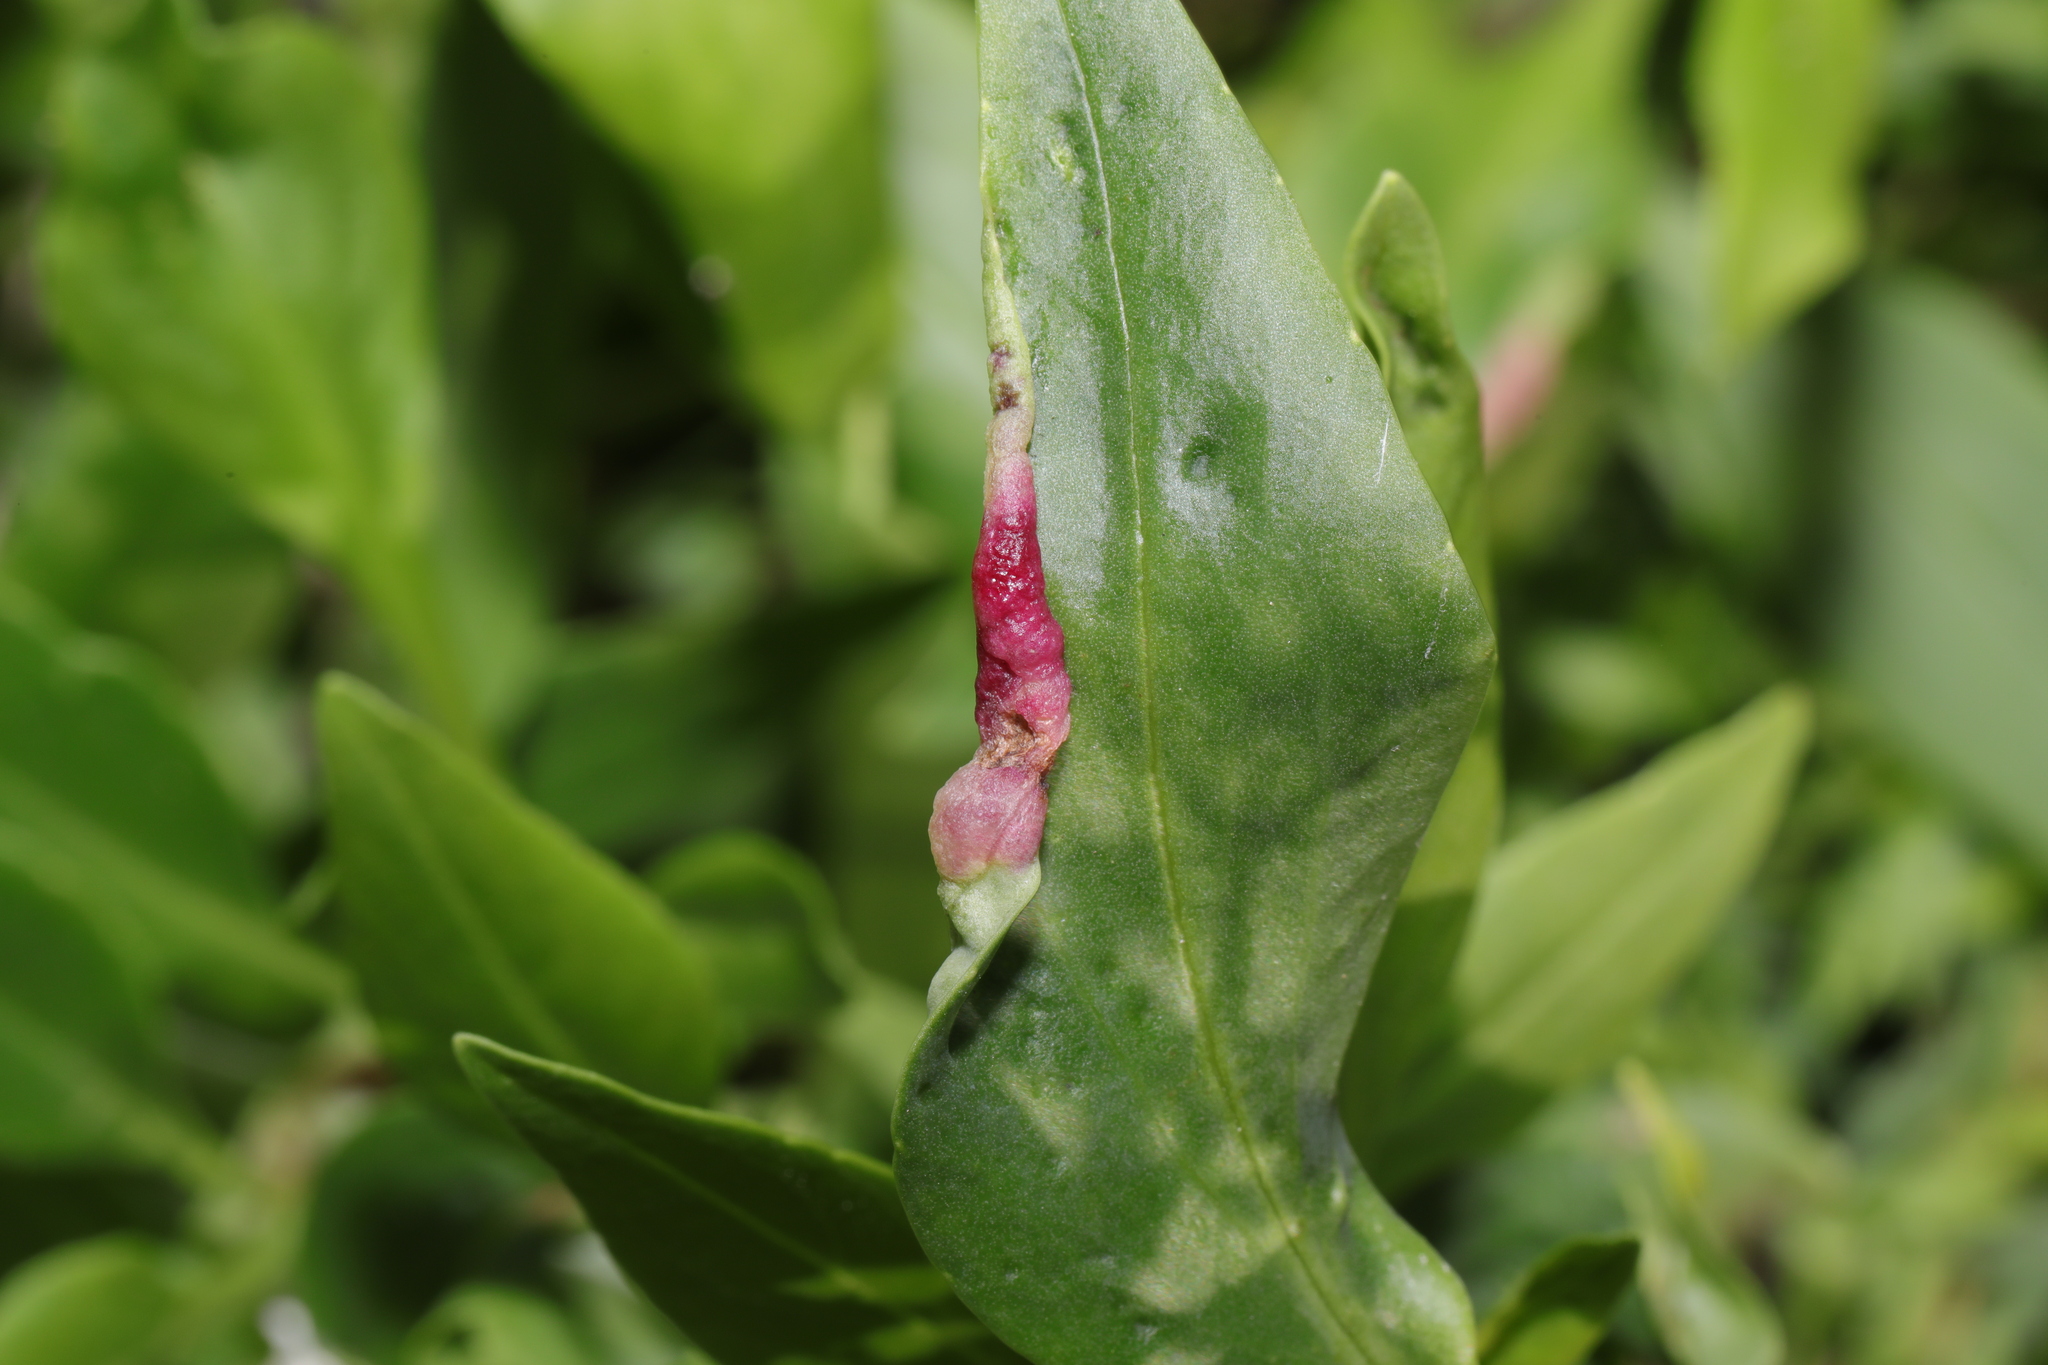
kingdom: Animalia
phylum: Arthropoda
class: Insecta
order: Hemiptera
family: Triozidae
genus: Trioza
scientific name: Trioza centranthi
